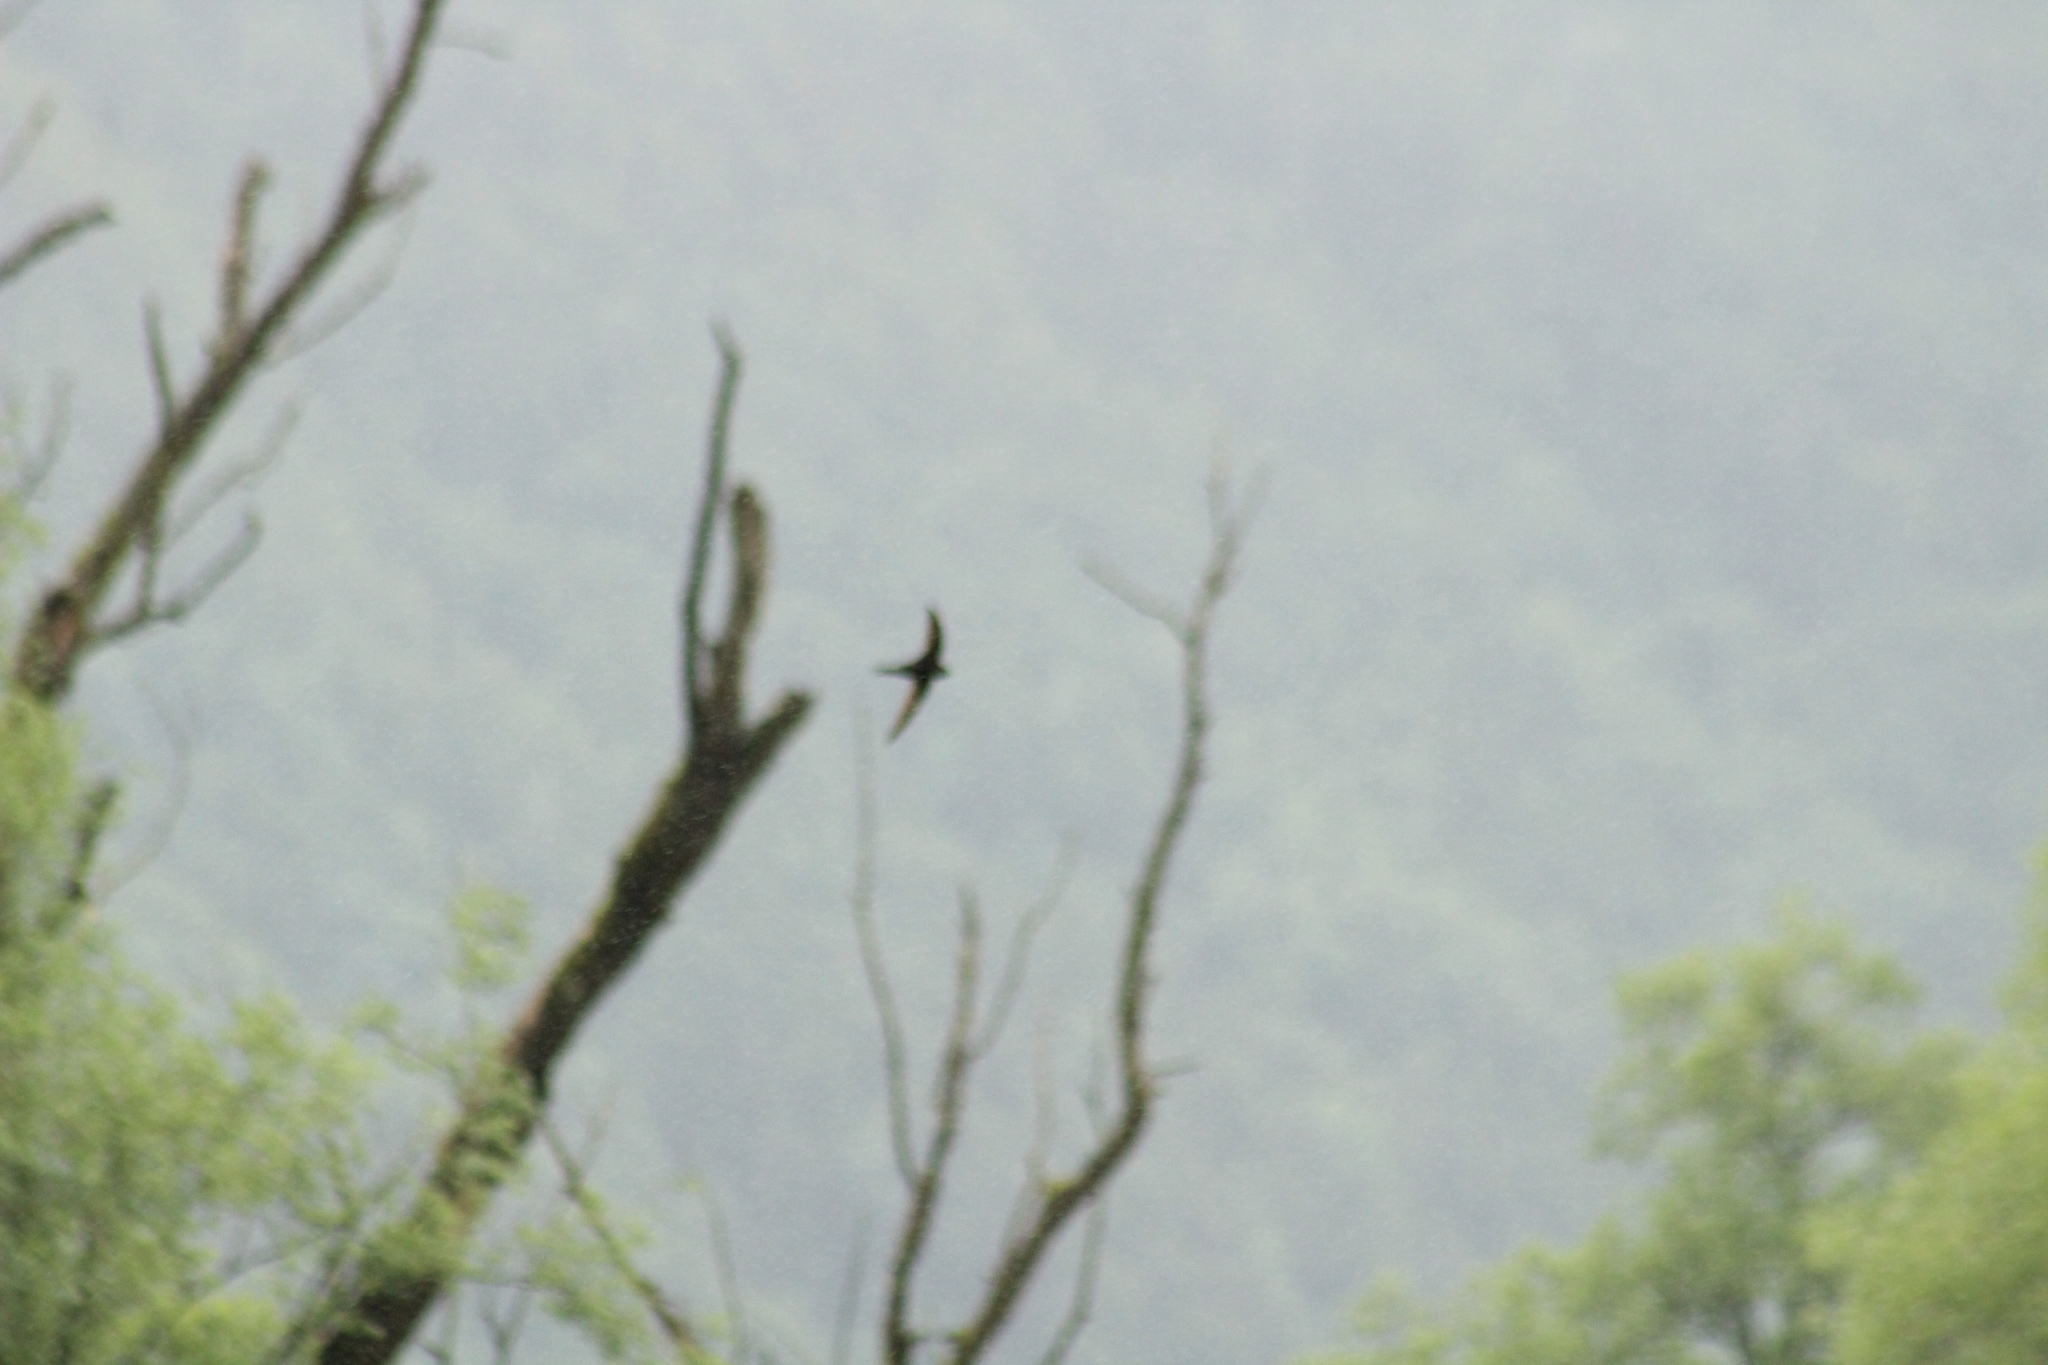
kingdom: Animalia
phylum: Chordata
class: Aves
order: Apodiformes
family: Apodidae
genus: Apus
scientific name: Apus apus
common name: Common swift
